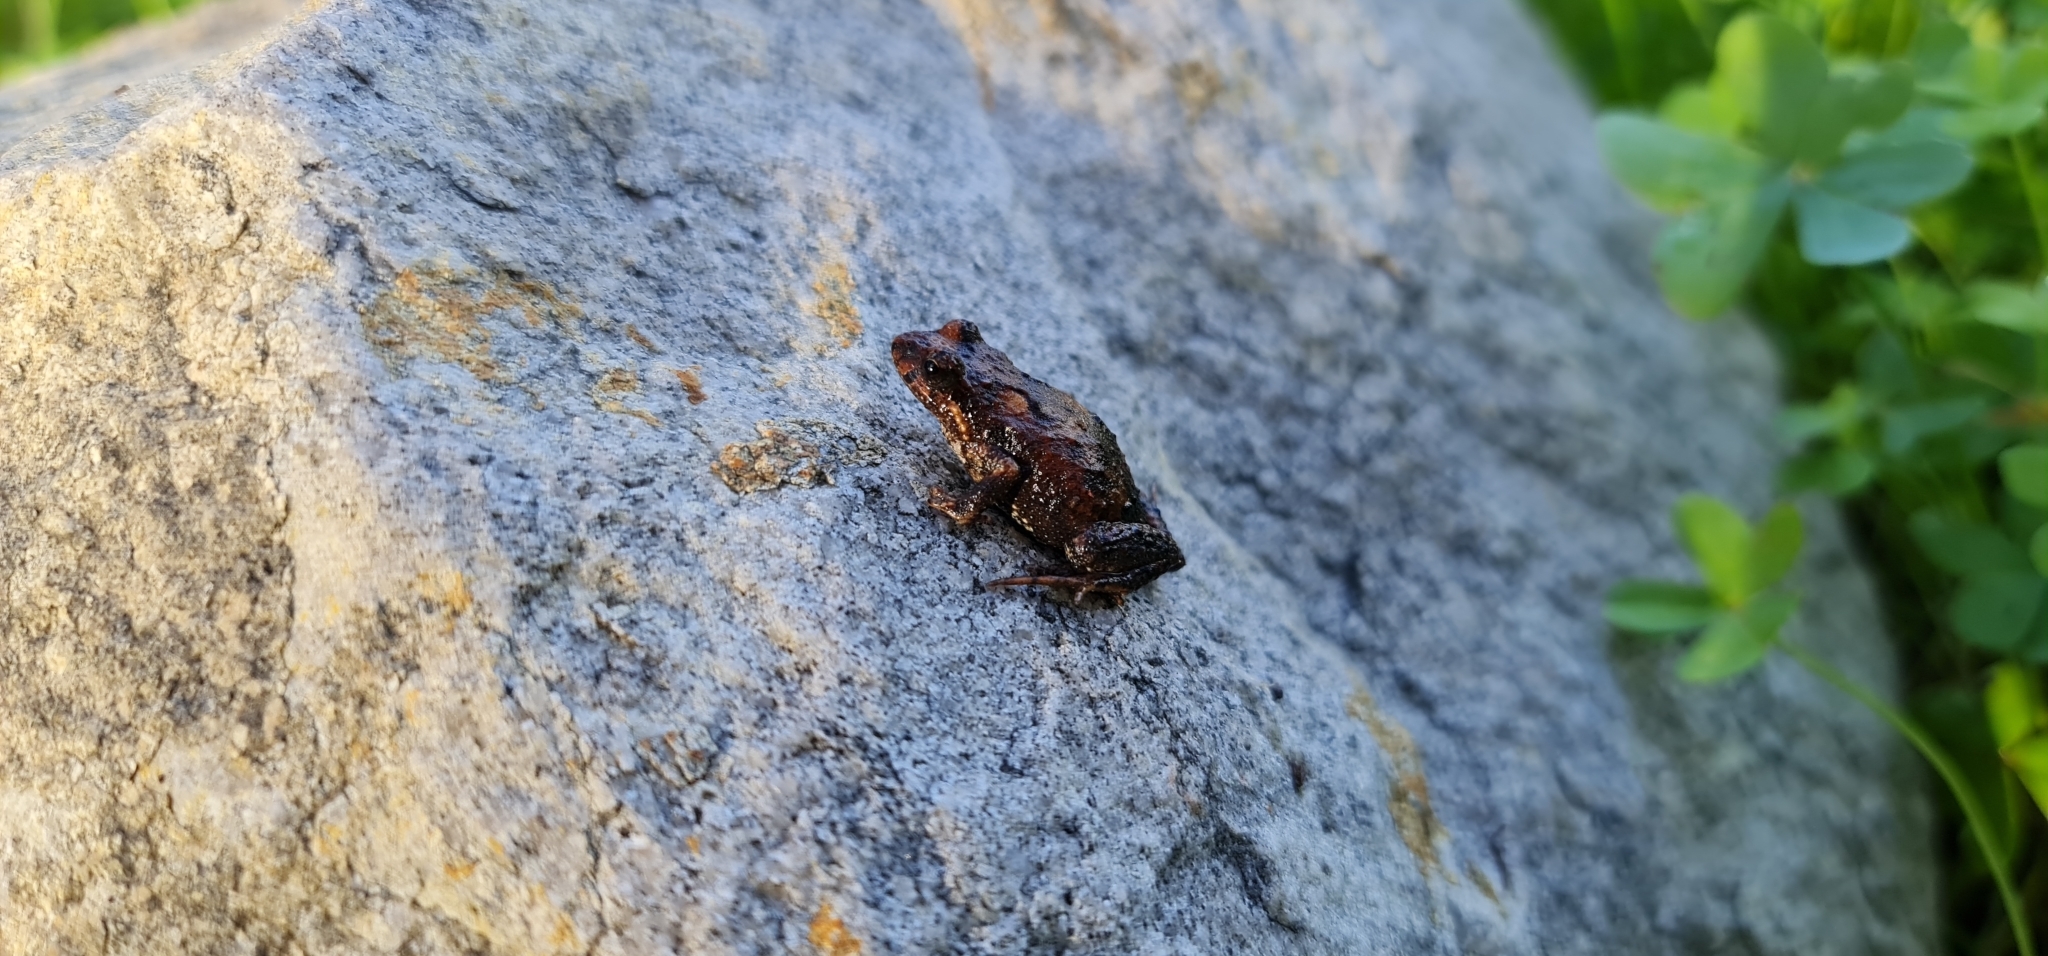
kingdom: Animalia
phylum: Chordata
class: Amphibia
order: Anura
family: Myobatrachidae
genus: Crinia
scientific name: Crinia signifera
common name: Brown froglet
